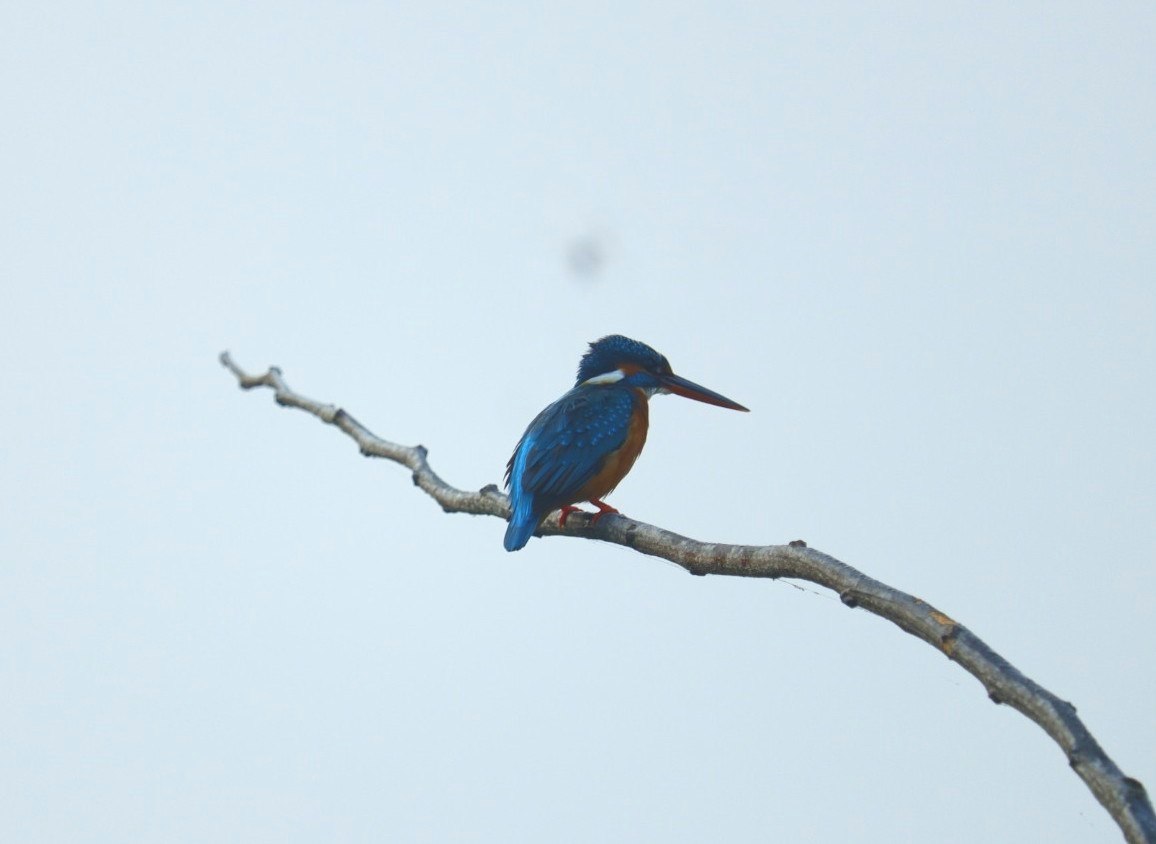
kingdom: Animalia
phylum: Chordata
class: Aves
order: Coraciiformes
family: Alcedinidae
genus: Alcedo
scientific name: Alcedo atthis
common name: Common kingfisher
